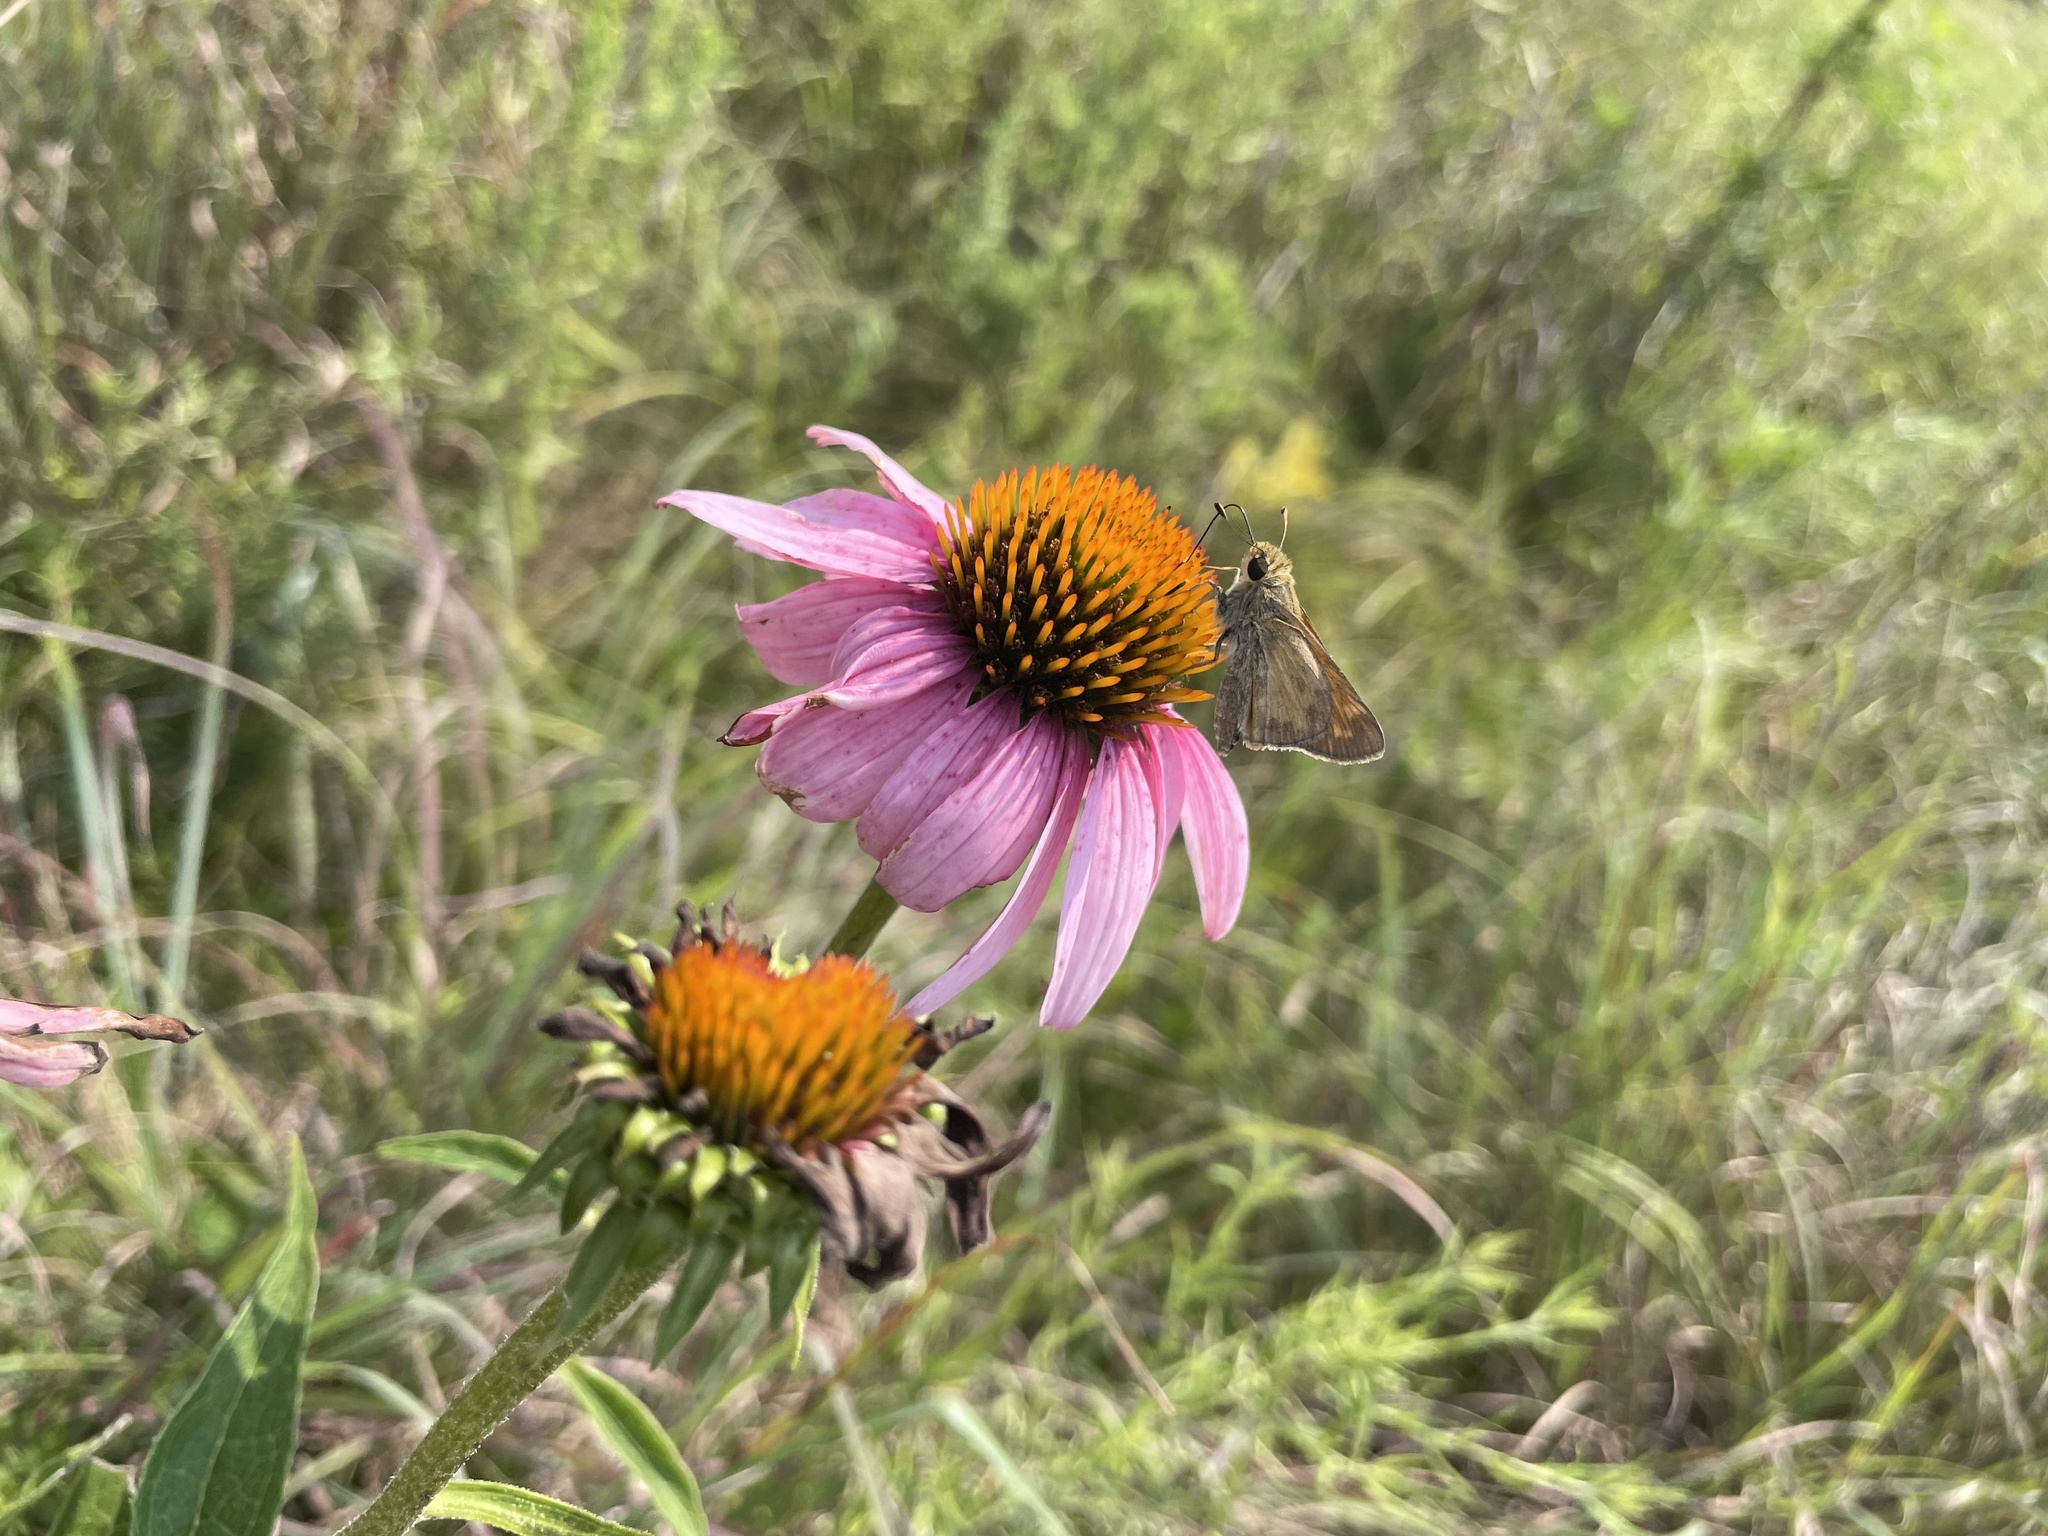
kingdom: Animalia
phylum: Arthropoda
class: Insecta
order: Lepidoptera
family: Hesperiidae
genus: Atalopedes
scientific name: Atalopedes
